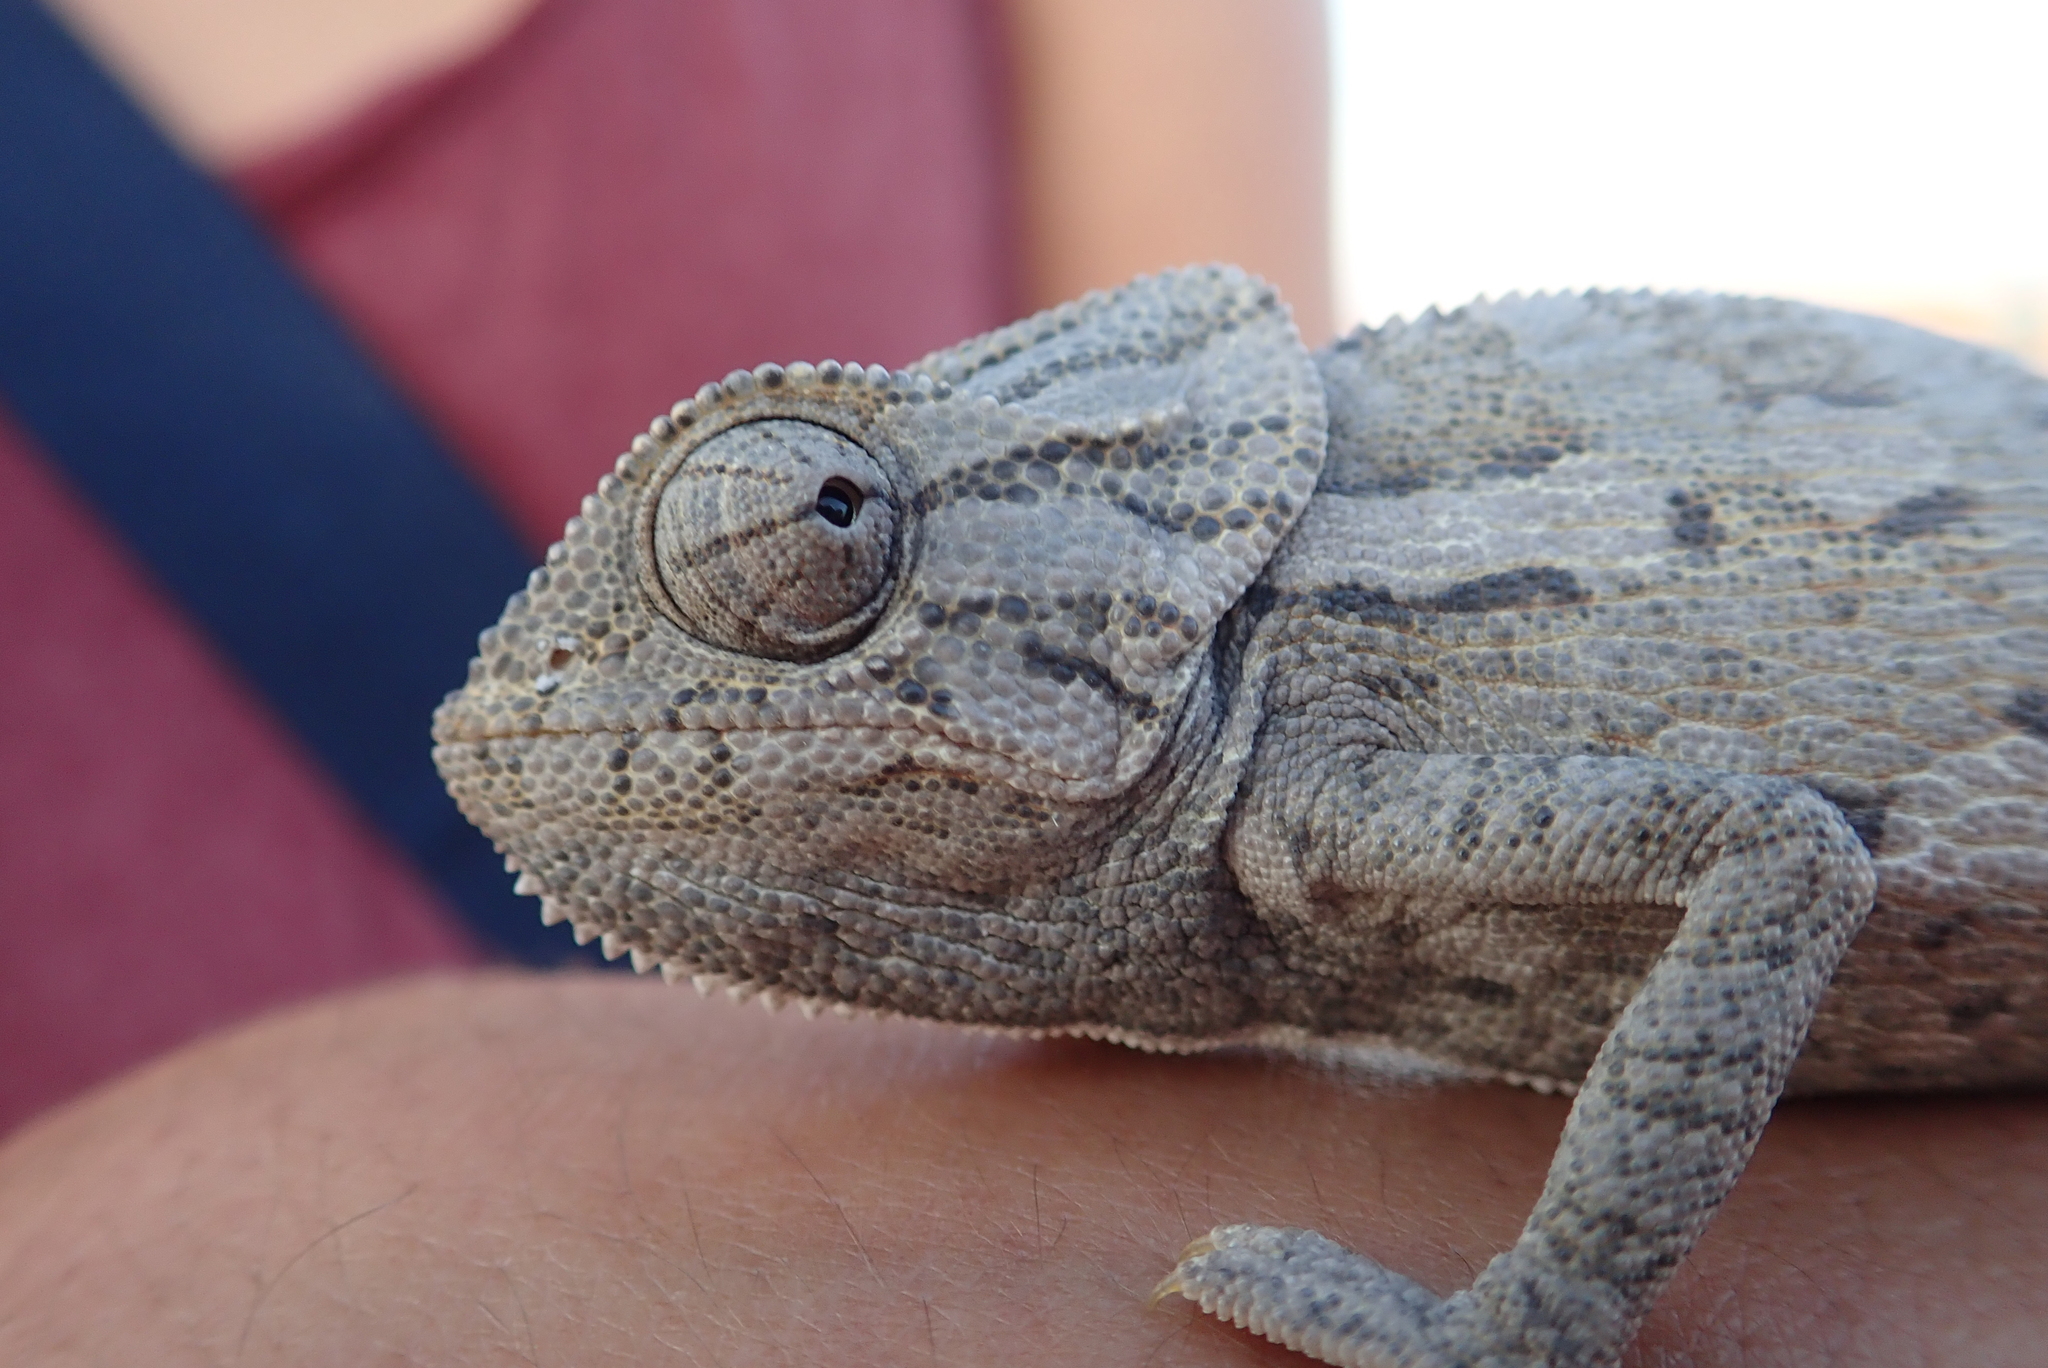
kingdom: Animalia
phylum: Chordata
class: Squamata
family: Chamaeleonidae
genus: Chamaeleo
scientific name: Chamaeleo chamaeleon
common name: Mediterranean chameleon
